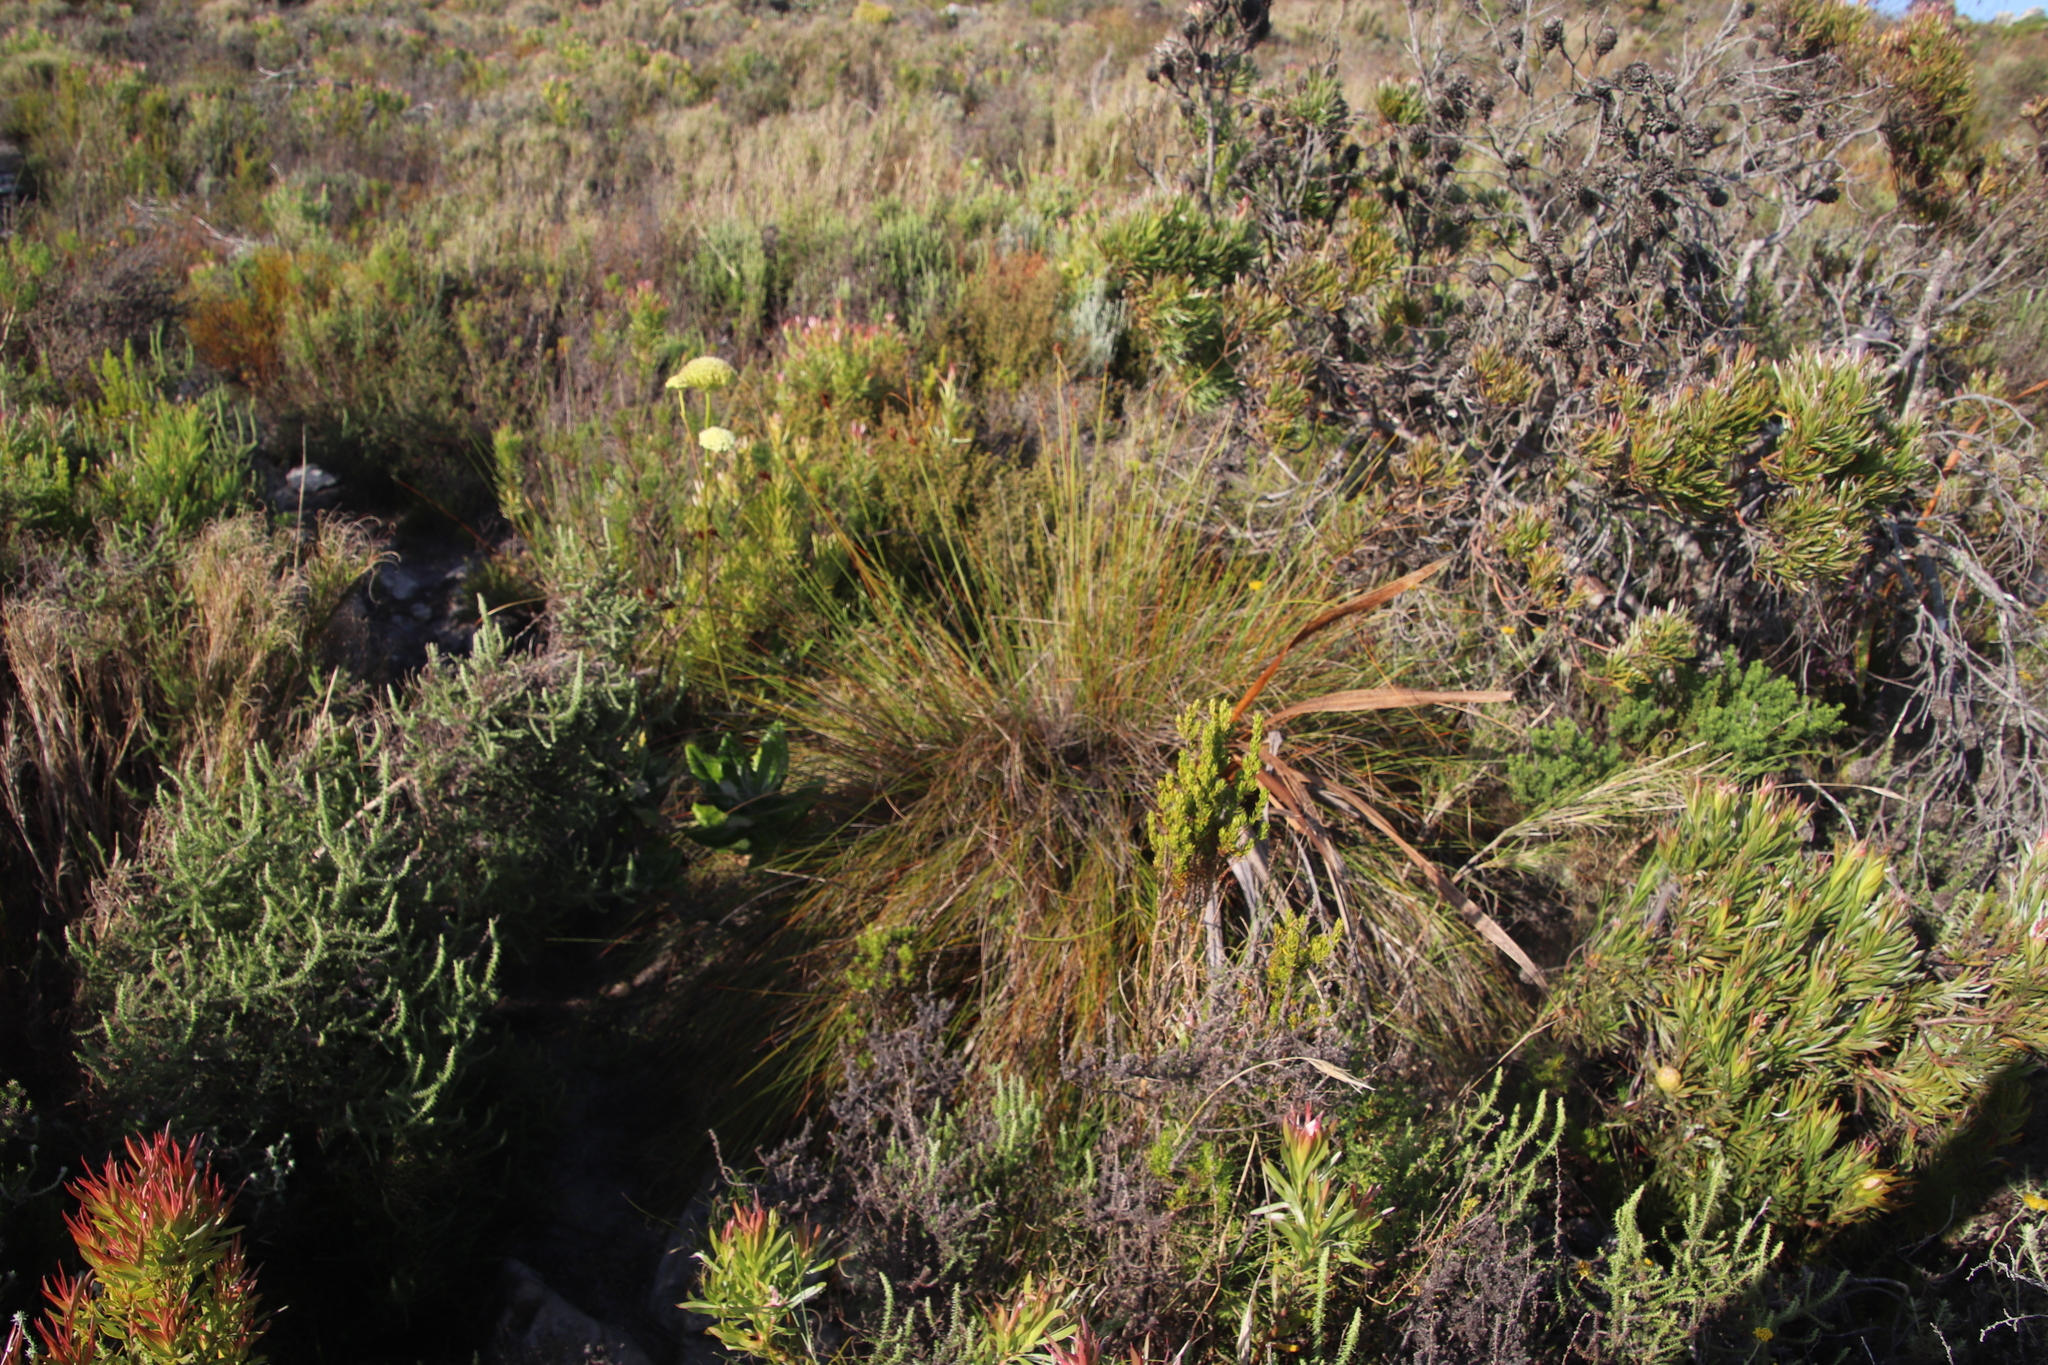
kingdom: Plantae
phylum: Tracheophyta
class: Liliopsida
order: Poales
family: Cyperaceae
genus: Schoenus
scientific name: Schoenus compar
